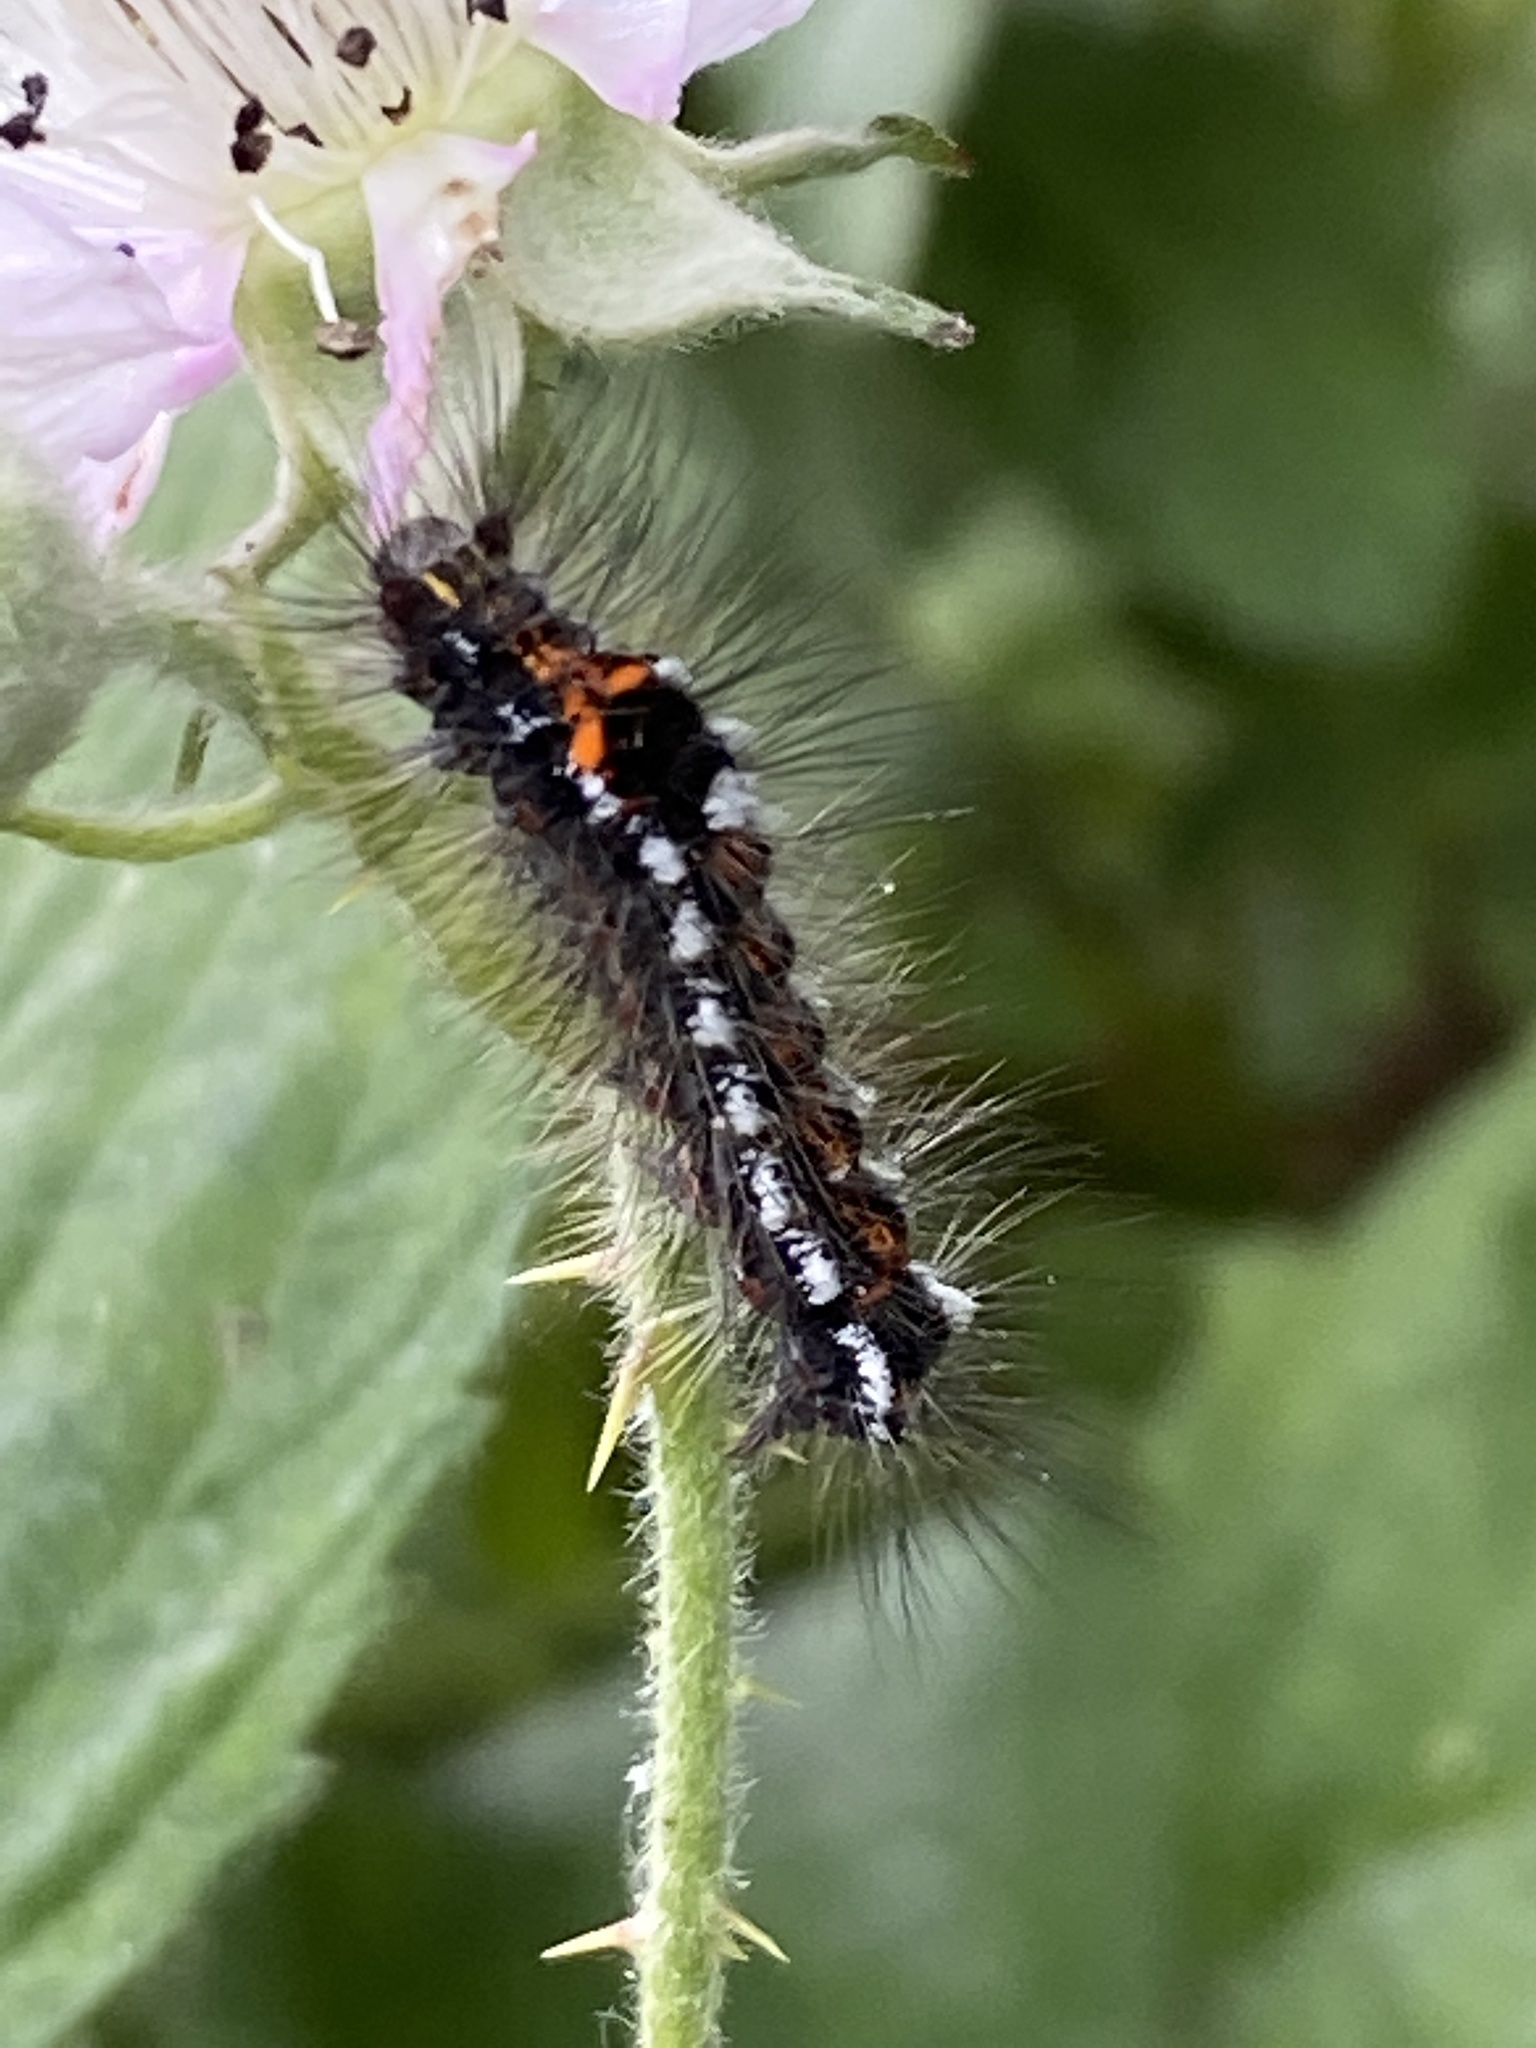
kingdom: Animalia
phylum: Arthropoda
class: Insecta
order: Lepidoptera
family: Erebidae
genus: Sphrageidus
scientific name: Sphrageidus similis
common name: Yellow-tail
